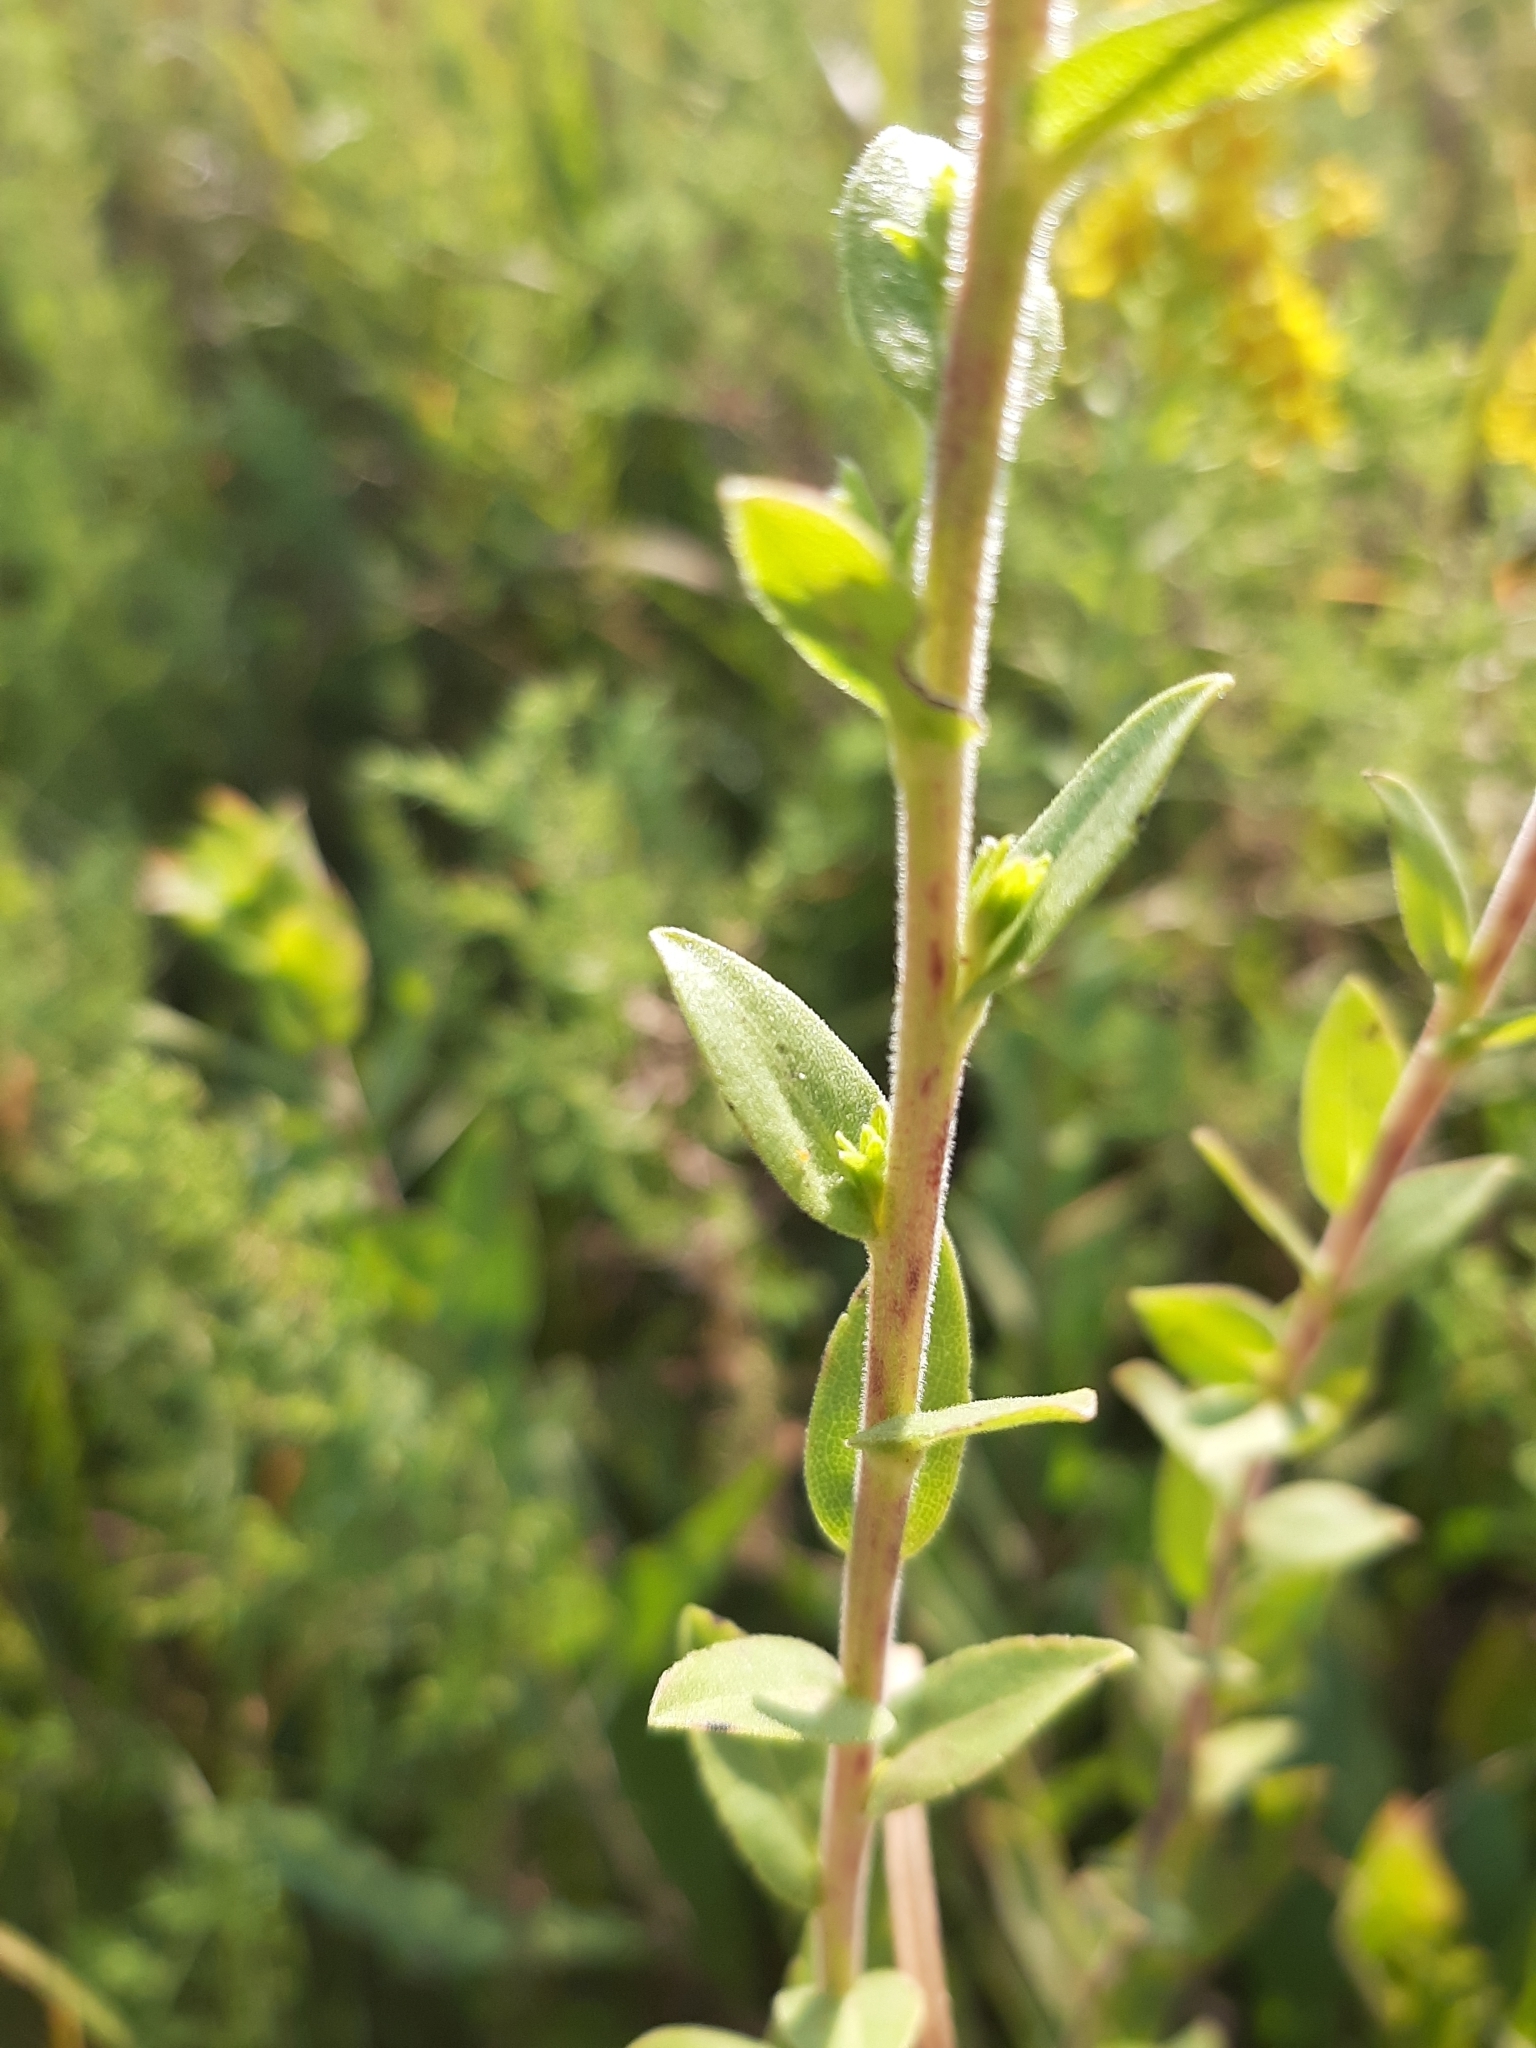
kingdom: Plantae
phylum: Tracheophyta
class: Magnoliopsida
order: Asterales
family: Asteraceae
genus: Solidago
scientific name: Solidago rigida
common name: Rigid goldenrod
